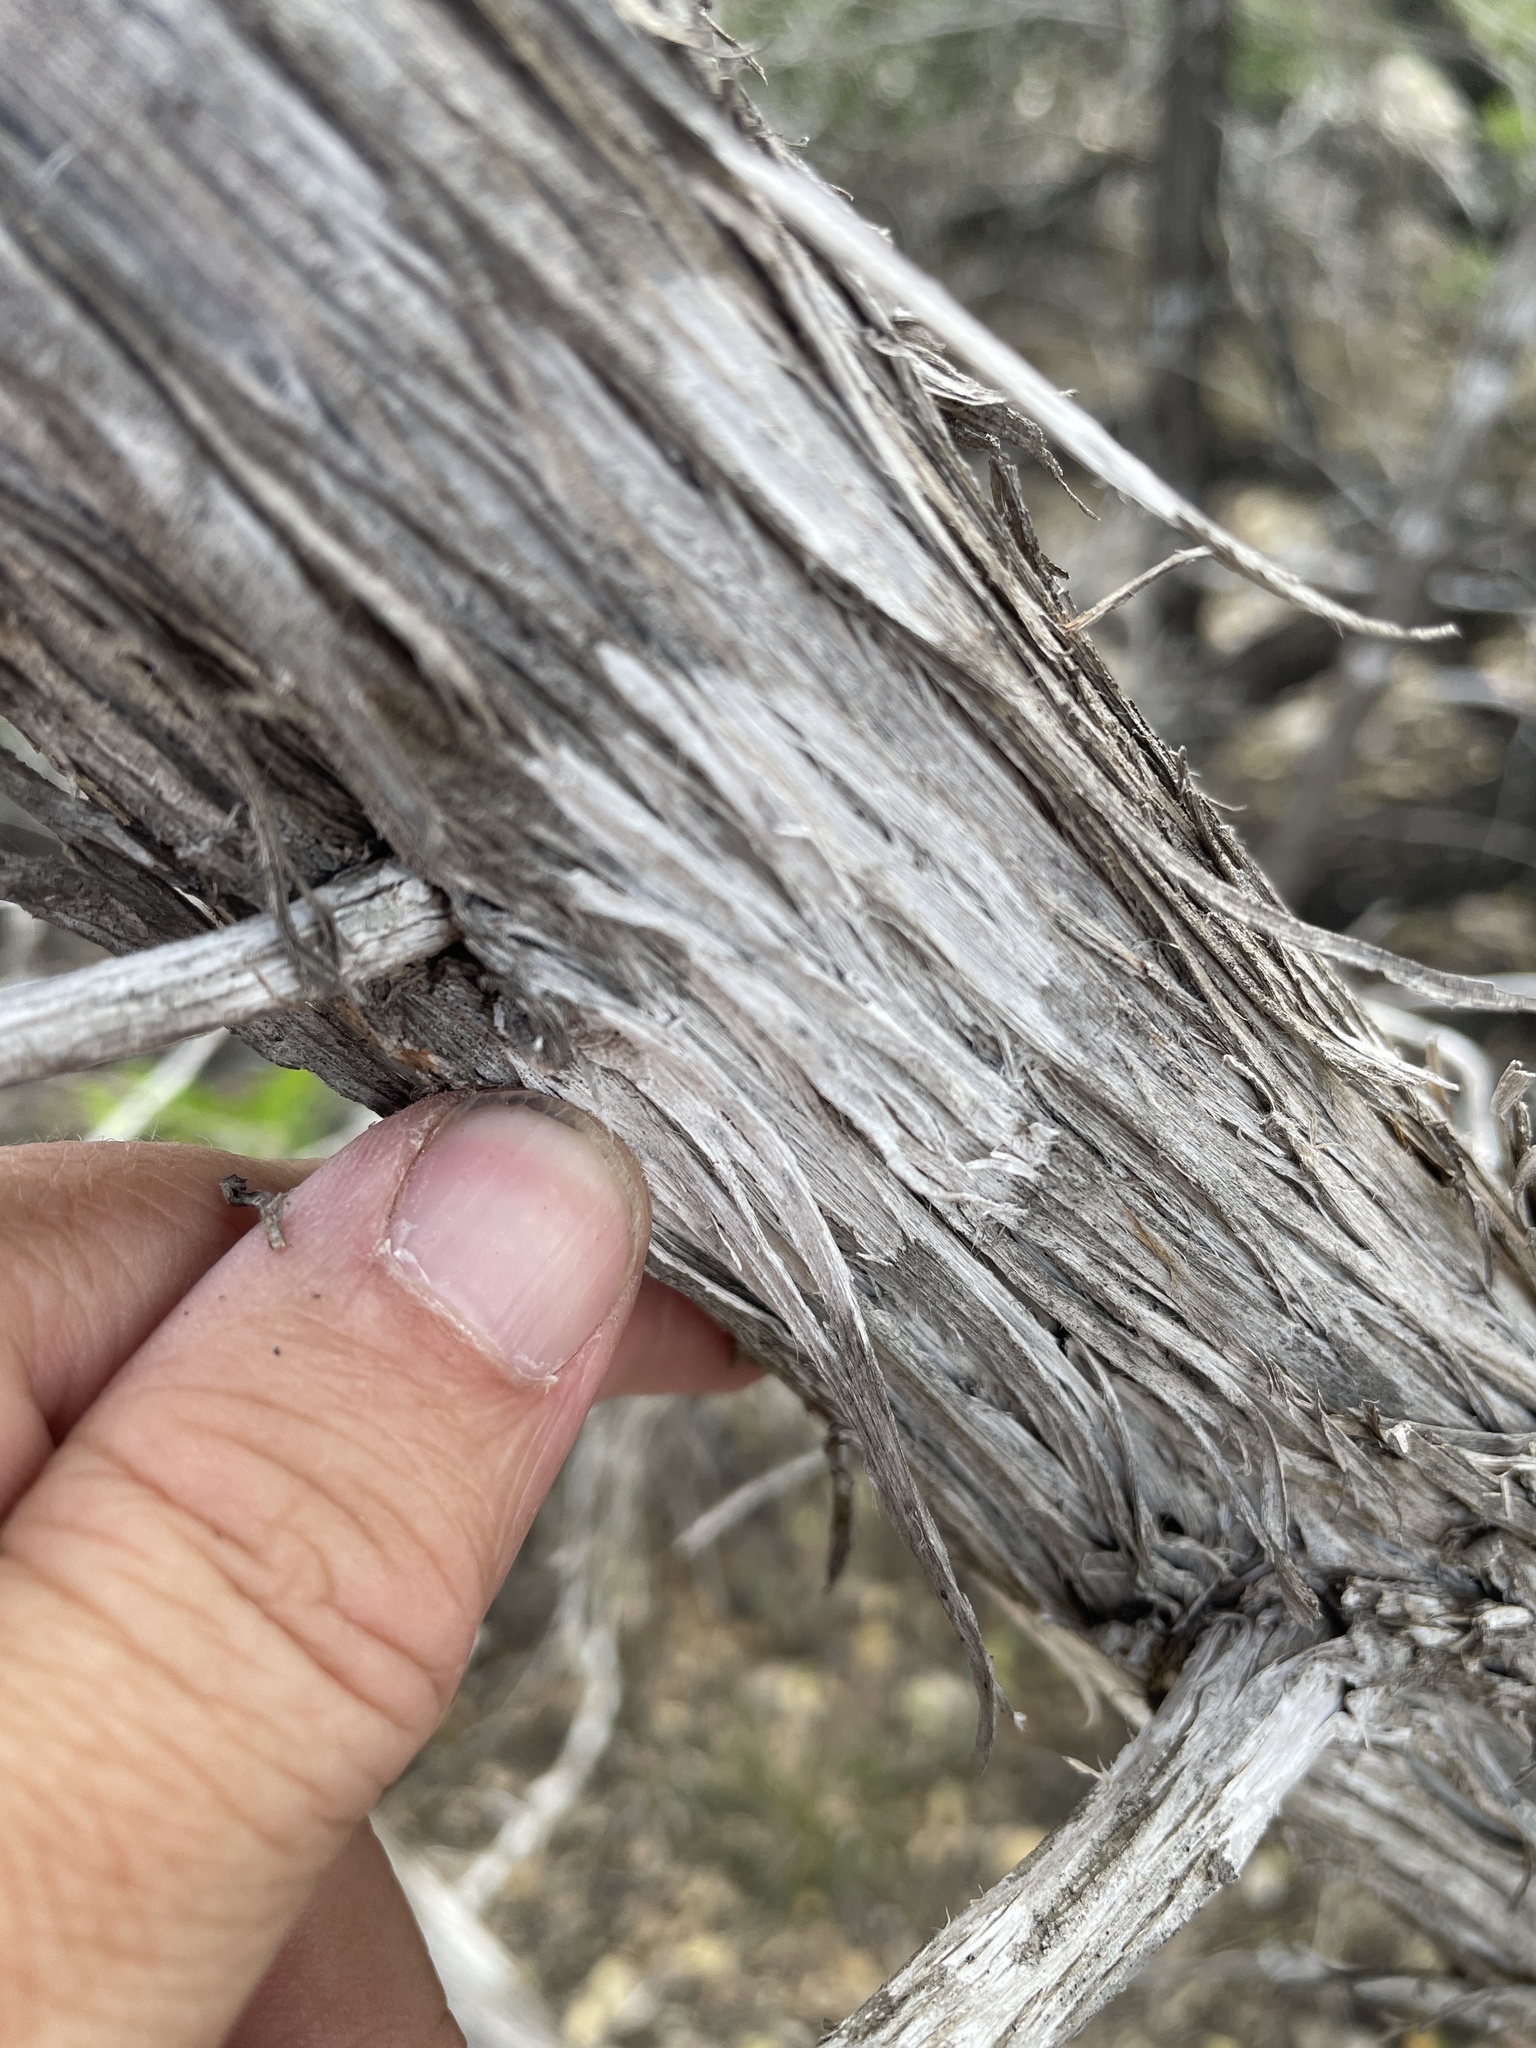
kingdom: Fungi
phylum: Ascomycota
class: Lecanoromycetes
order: Ostropales
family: Stictidaceae
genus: Robergea
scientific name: Robergea
